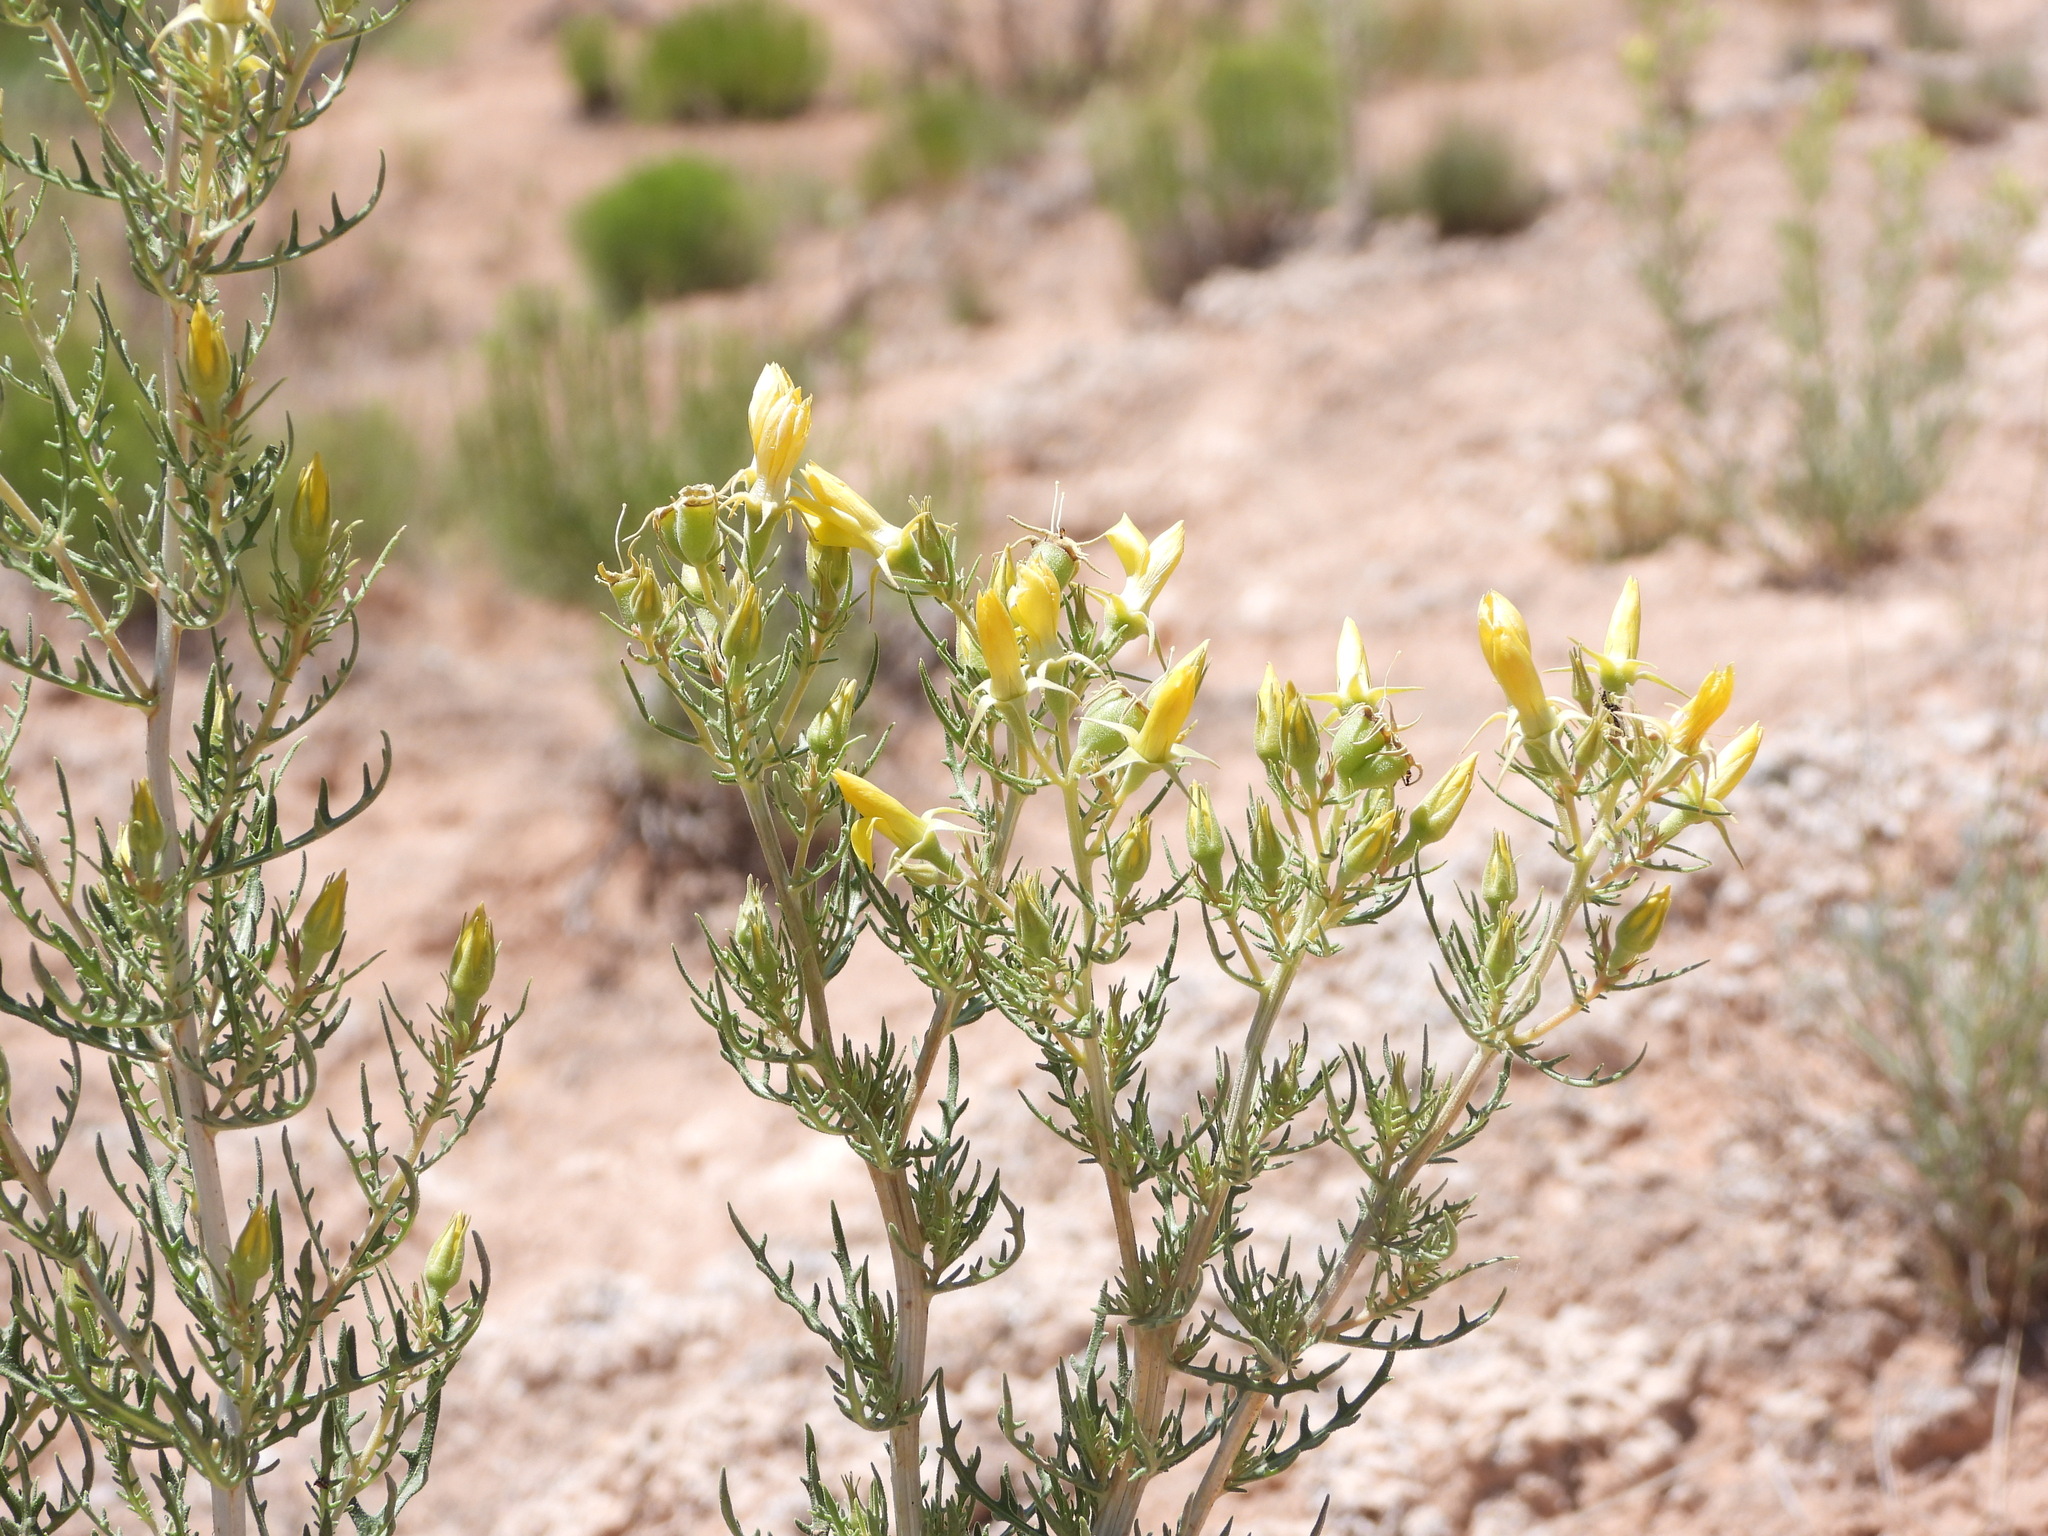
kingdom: Plantae
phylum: Tracheophyta
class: Magnoliopsida
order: Cornales
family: Loasaceae
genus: Mentzelia
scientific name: Mentzelia paradoxensis
